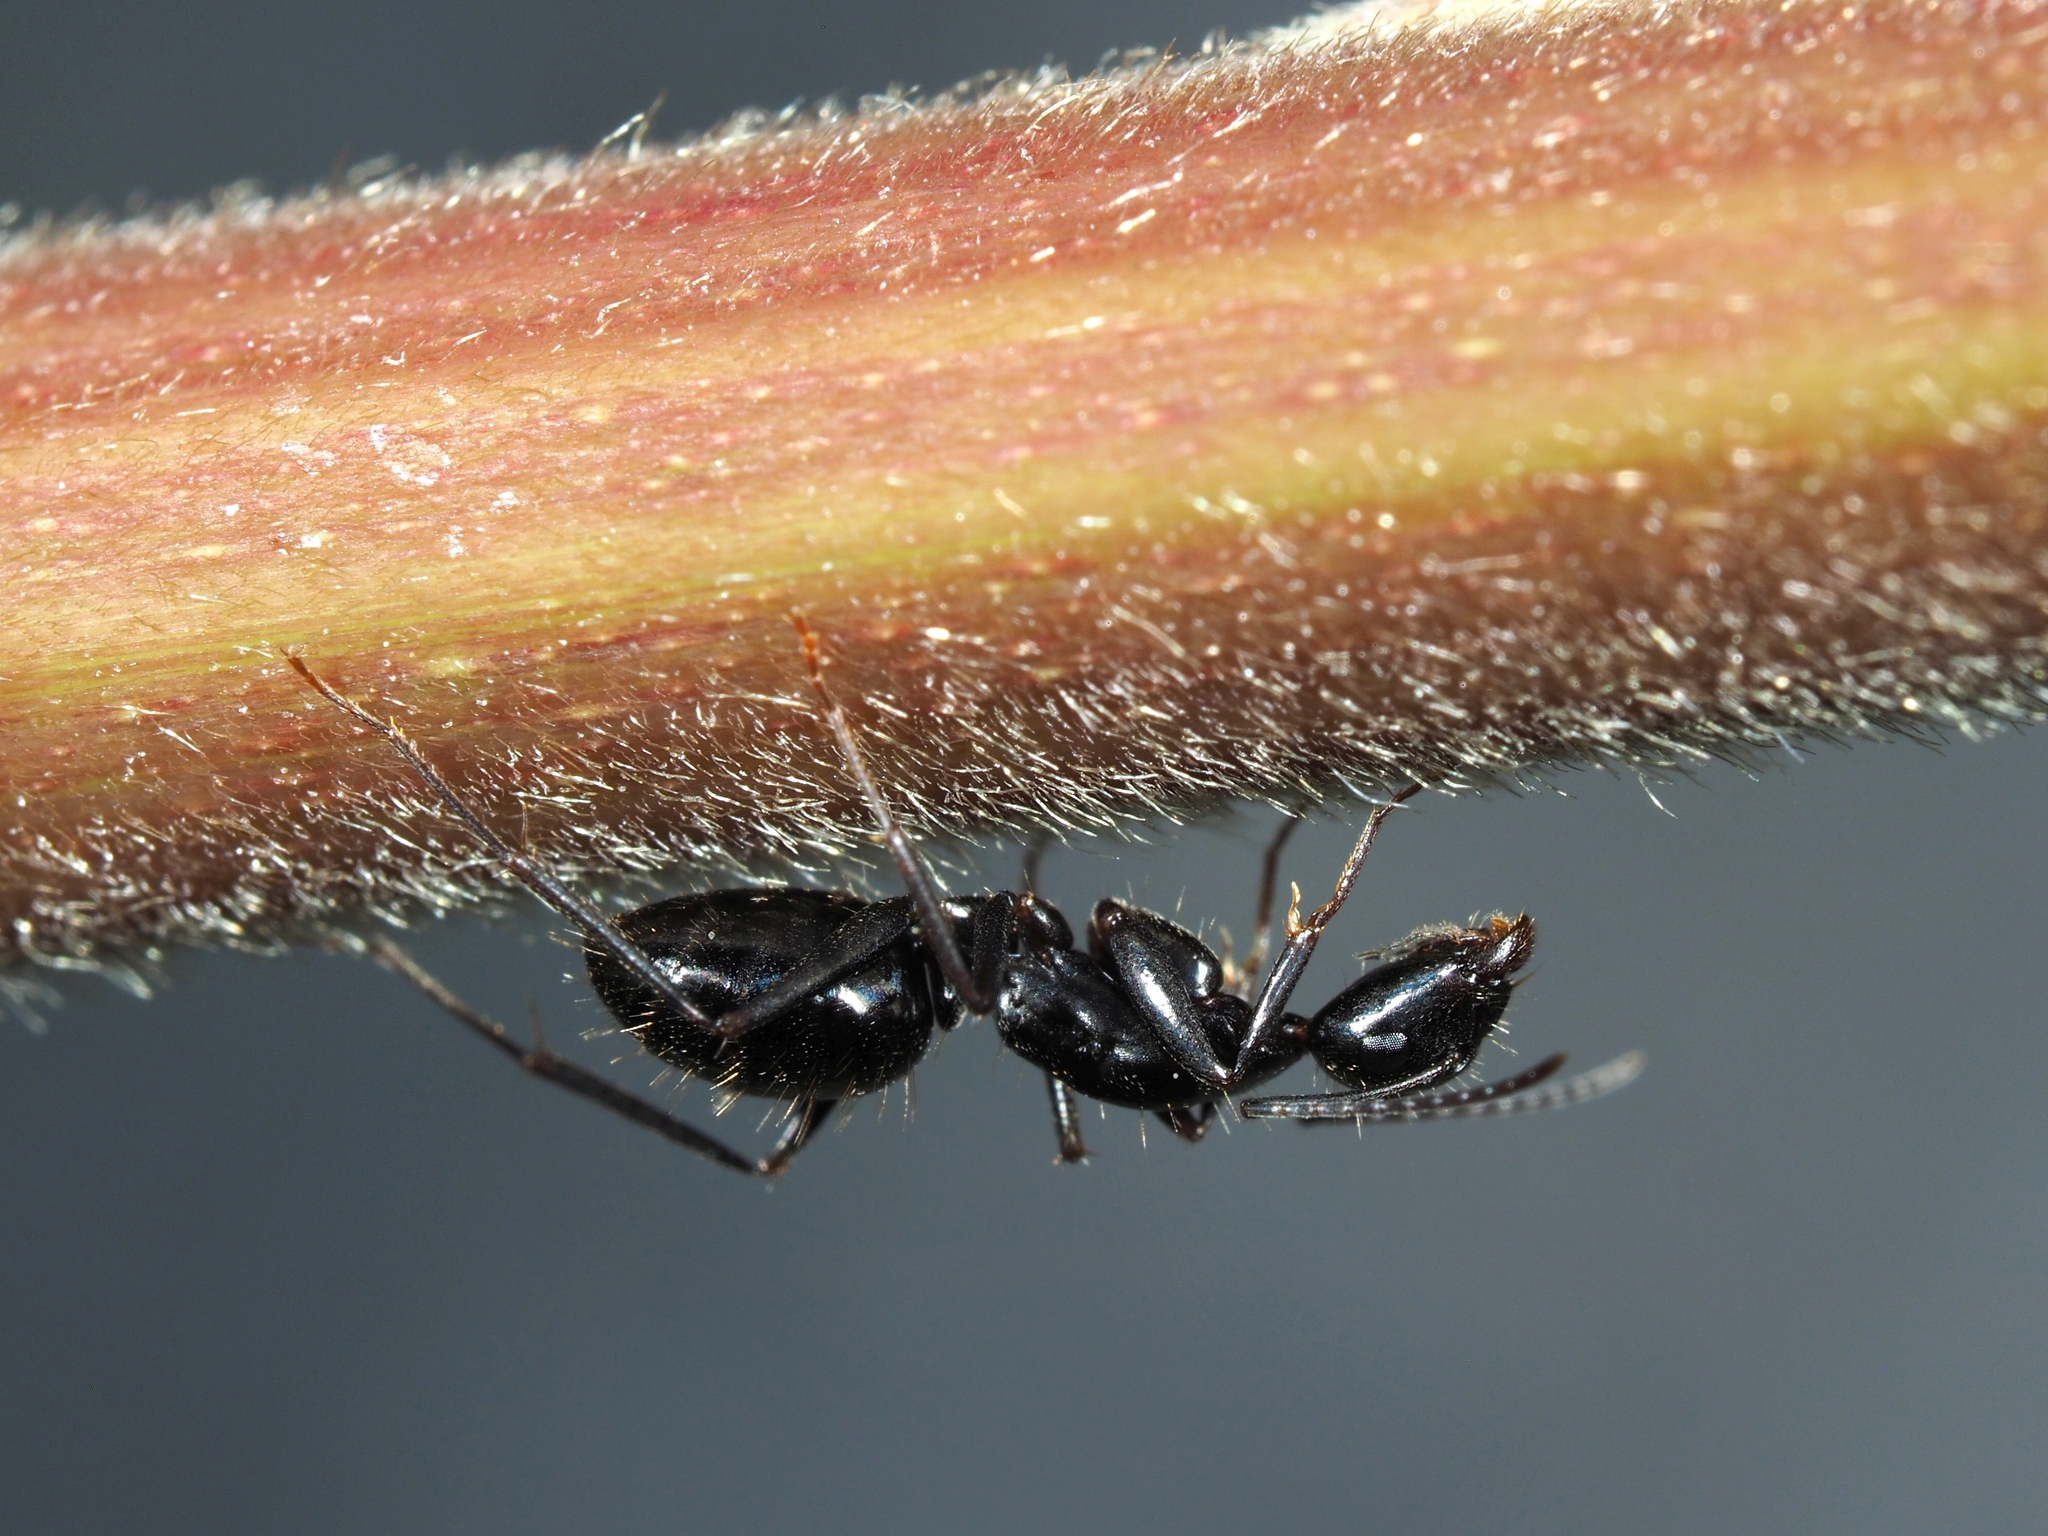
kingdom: Animalia
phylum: Arthropoda
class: Insecta
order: Hymenoptera
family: Formicidae
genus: Camponotus
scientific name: Camponotus aethiops
